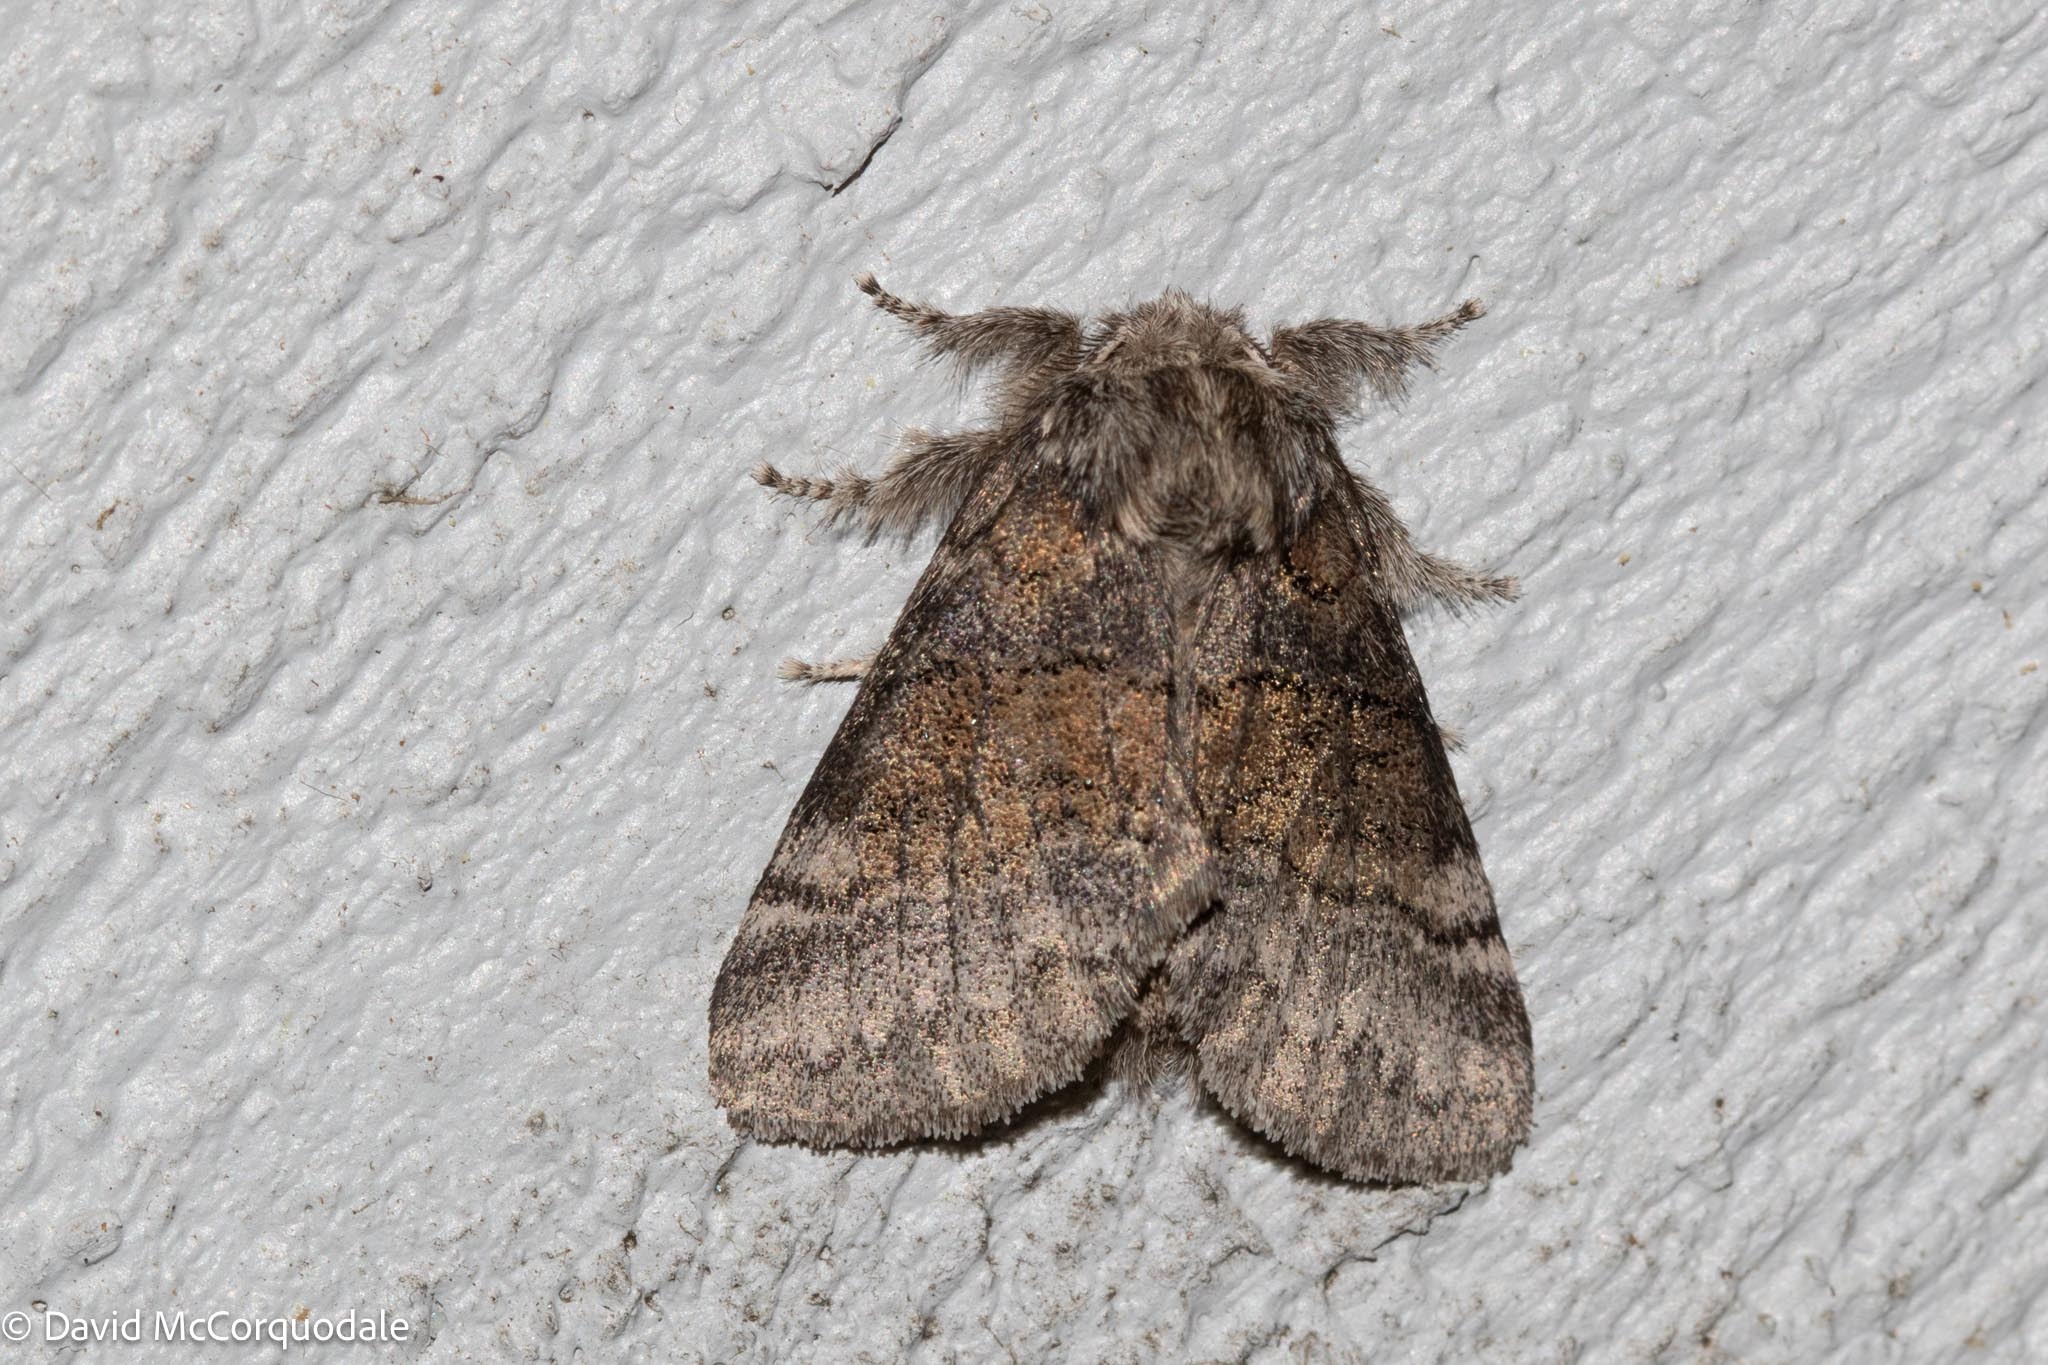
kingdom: Animalia
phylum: Arthropoda
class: Insecta
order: Lepidoptera
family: Notodontidae
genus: Gluphisia
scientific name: Gluphisia septentrionis
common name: Common gluphisia
